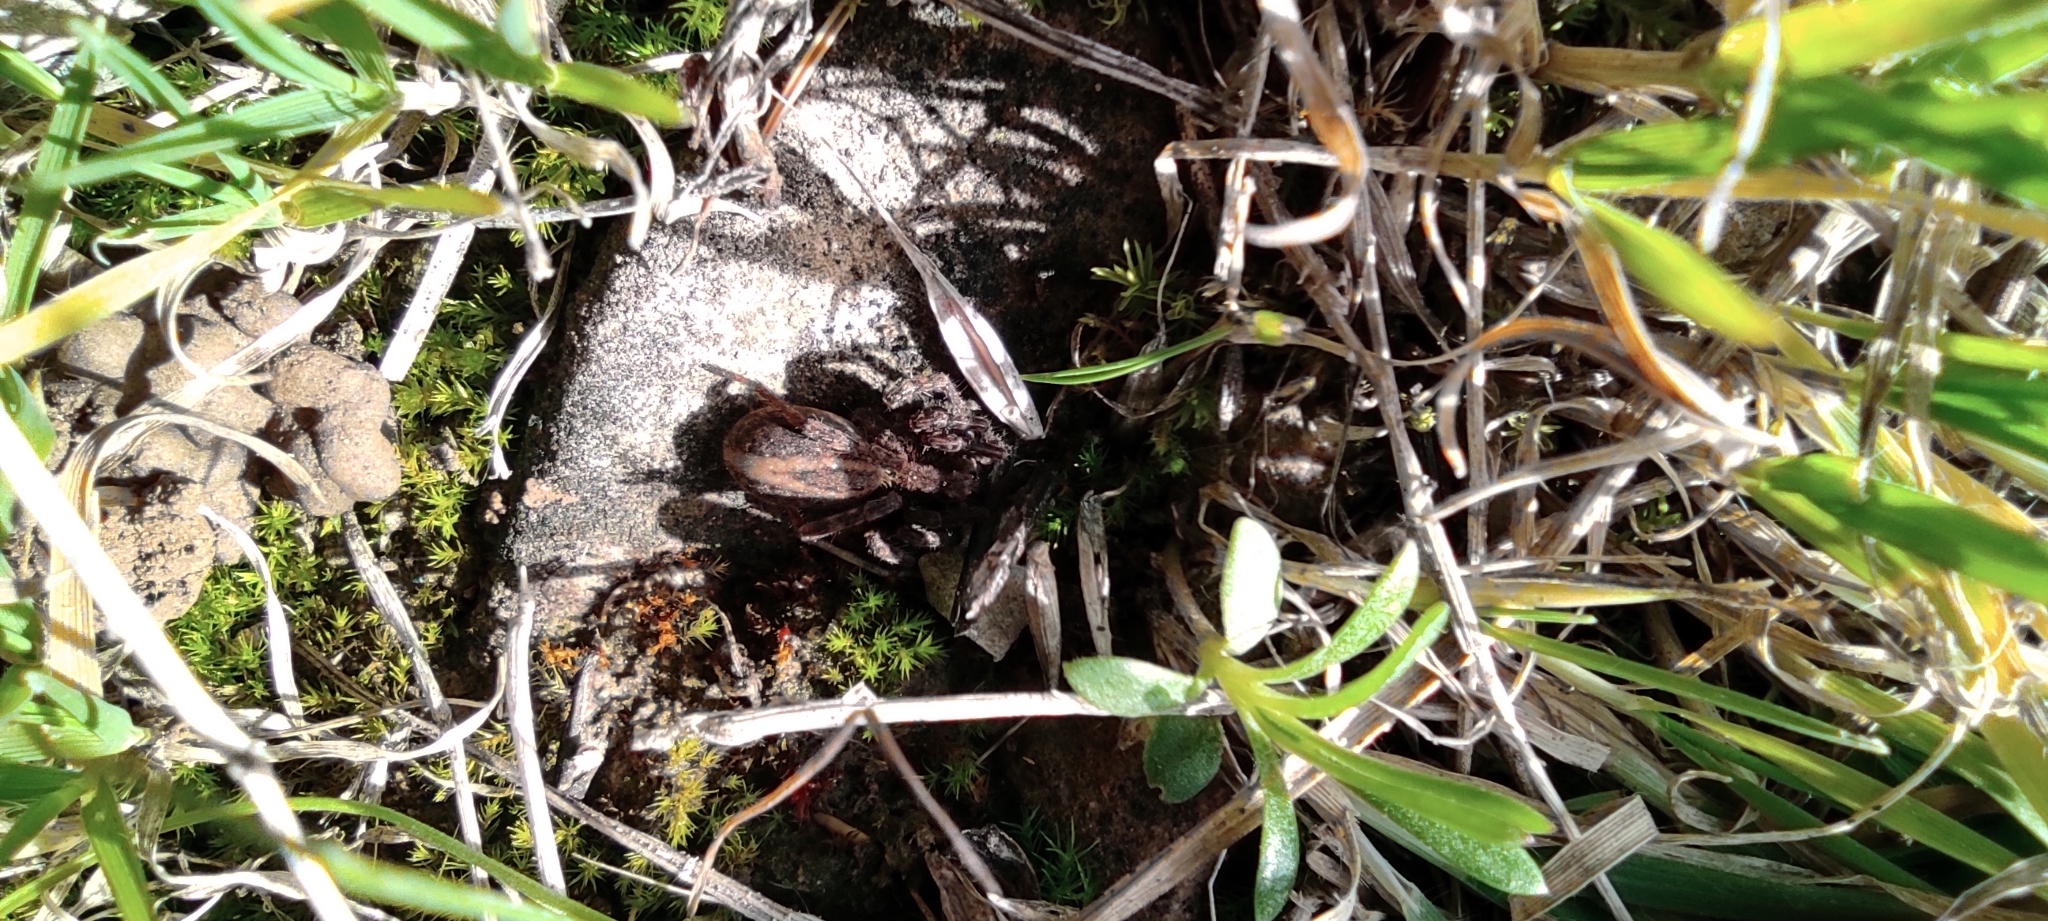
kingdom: Animalia
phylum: Arthropoda
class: Arachnida
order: Araneae
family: Lycosidae
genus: Alopecosa
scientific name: Alopecosa cuneata
